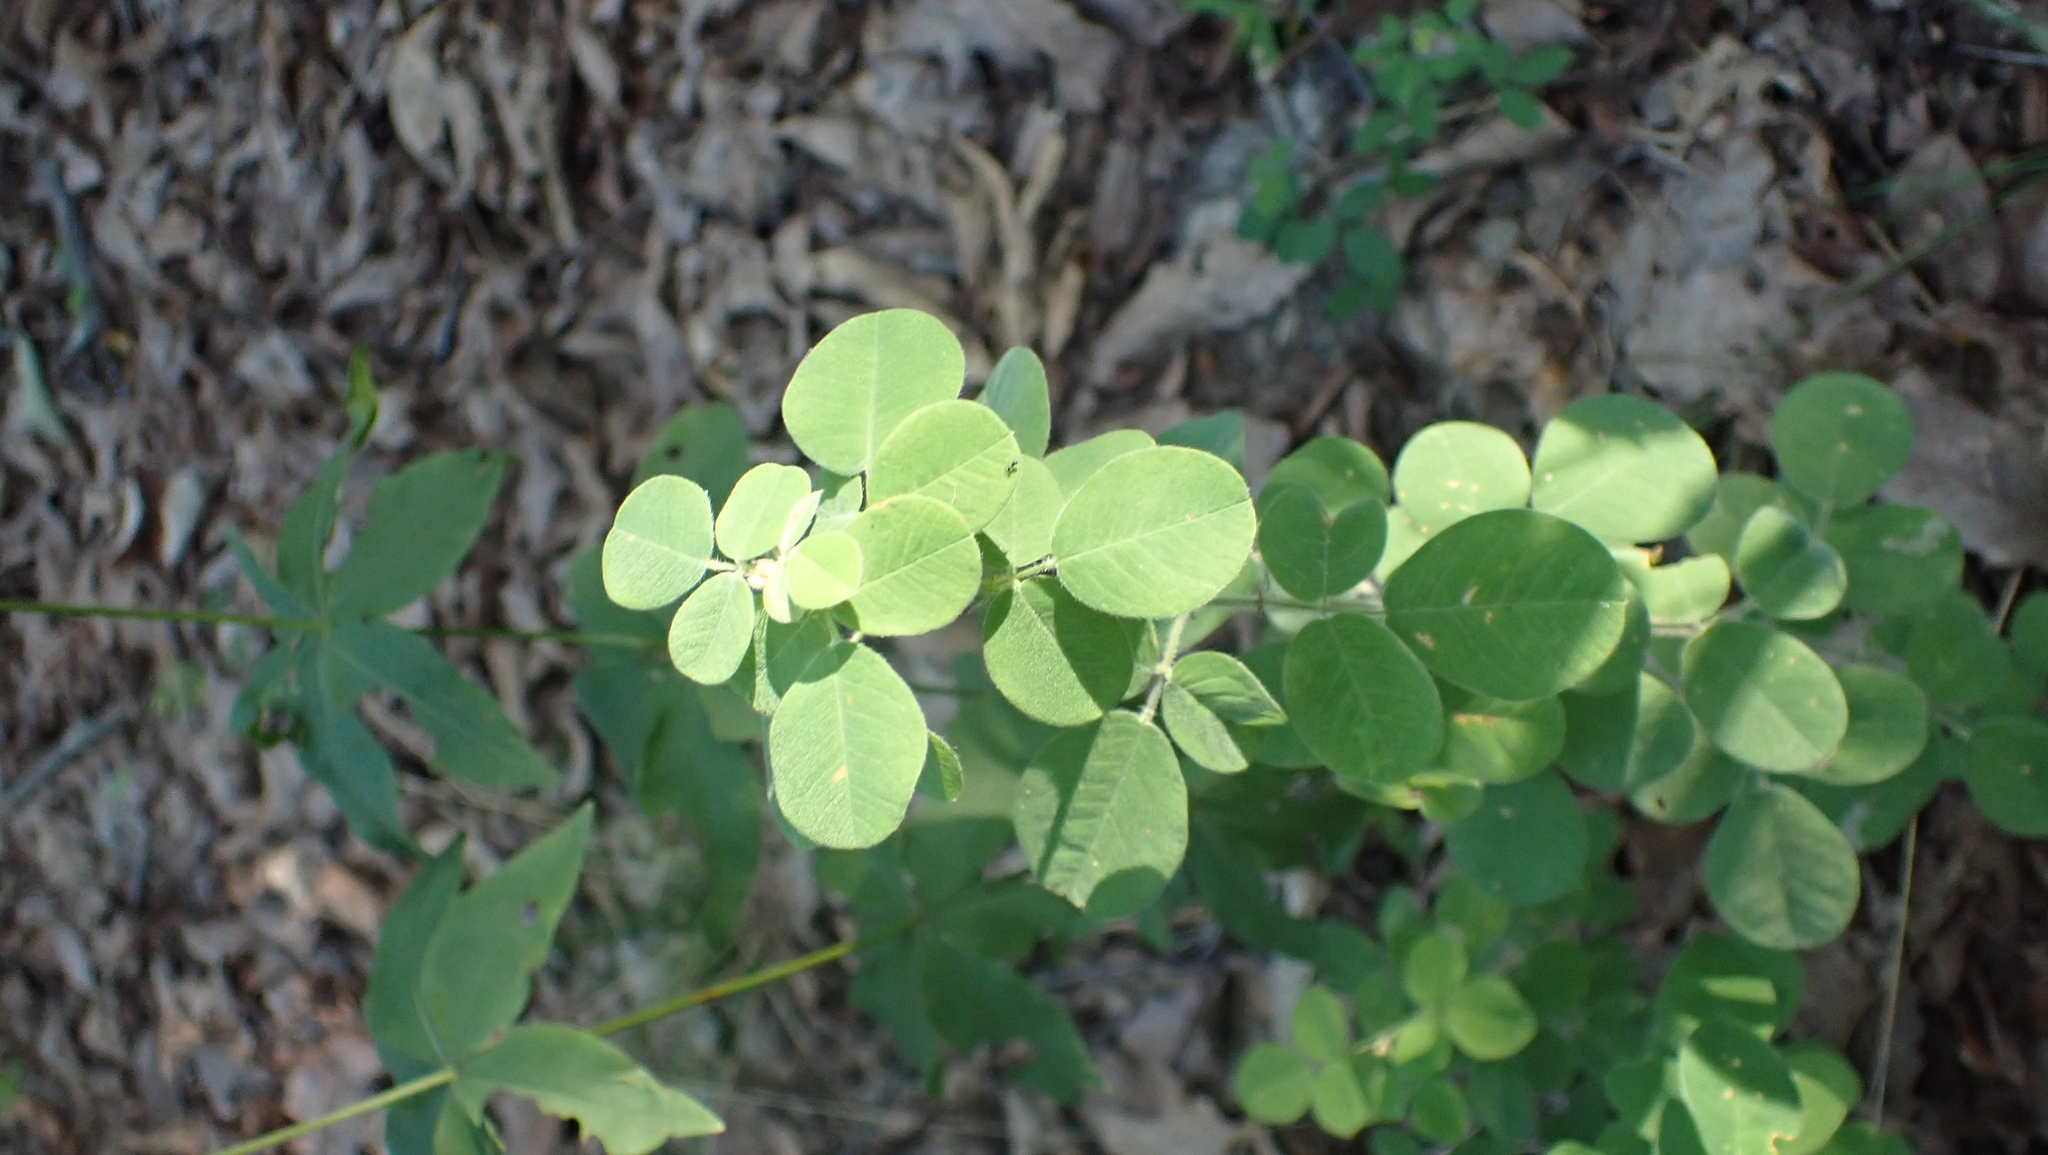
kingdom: Plantae
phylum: Tracheophyta
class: Magnoliopsida
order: Fabales
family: Fabaceae
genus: Lespedeza
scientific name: Lespedeza hirta
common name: Hairy lespedeza
